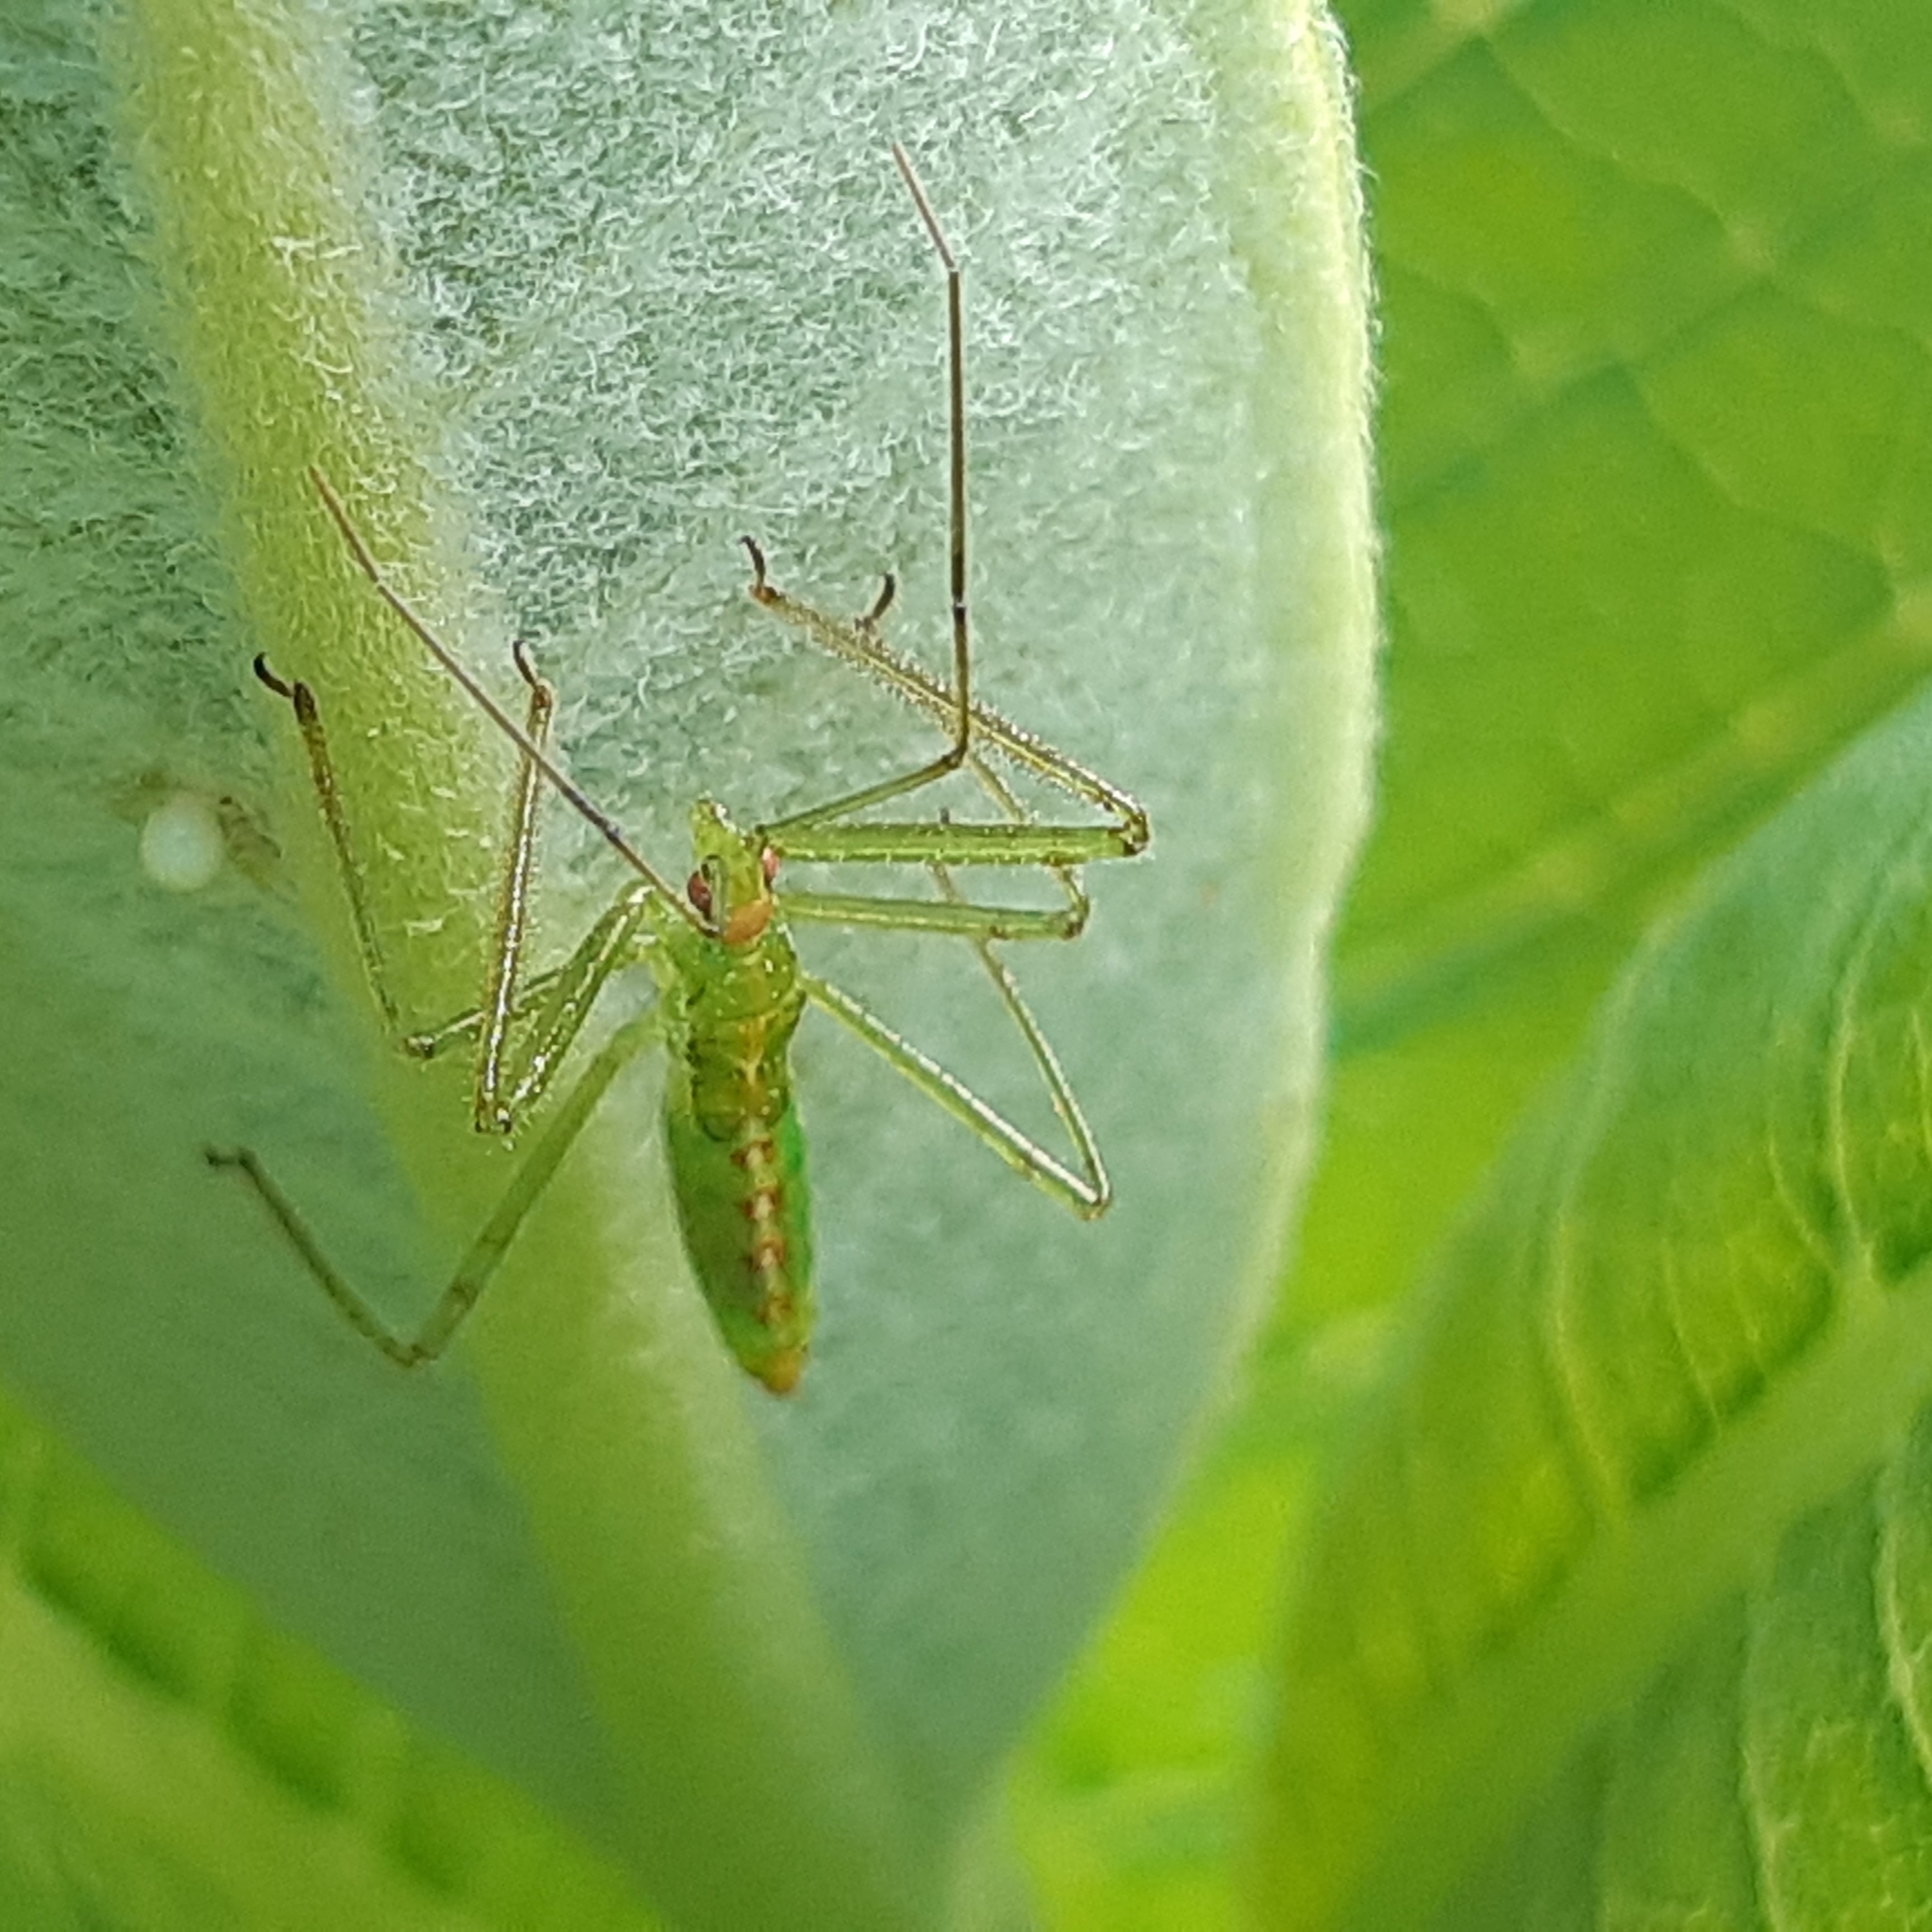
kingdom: Animalia
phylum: Arthropoda
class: Insecta
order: Hemiptera
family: Reduviidae
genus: Zelus
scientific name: Zelus luridus
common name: Pale green assassin bug
